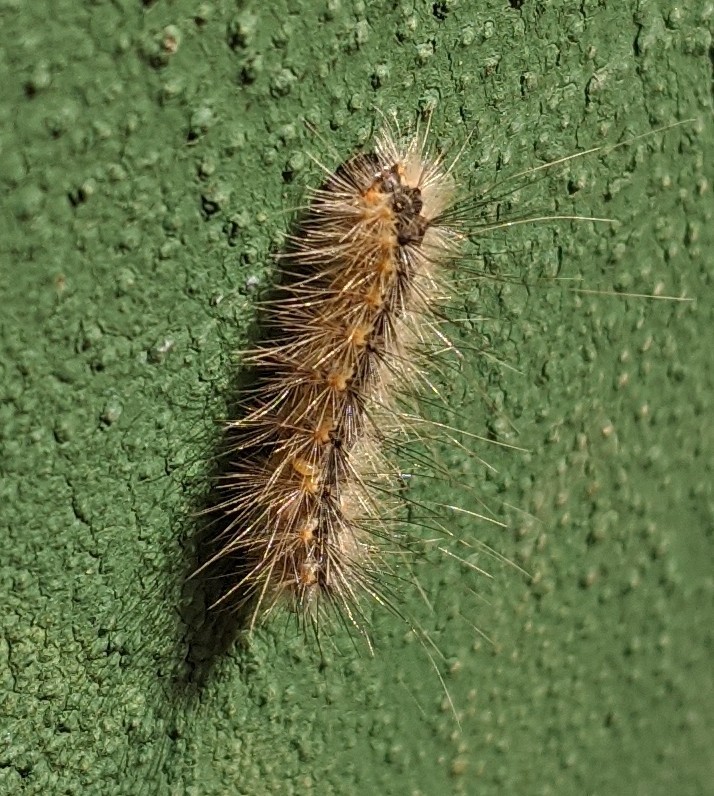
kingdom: Animalia
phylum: Arthropoda
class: Insecta
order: Lepidoptera
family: Erebidae
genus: Hyphantria
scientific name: Hyphantria cunea
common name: American white moth
